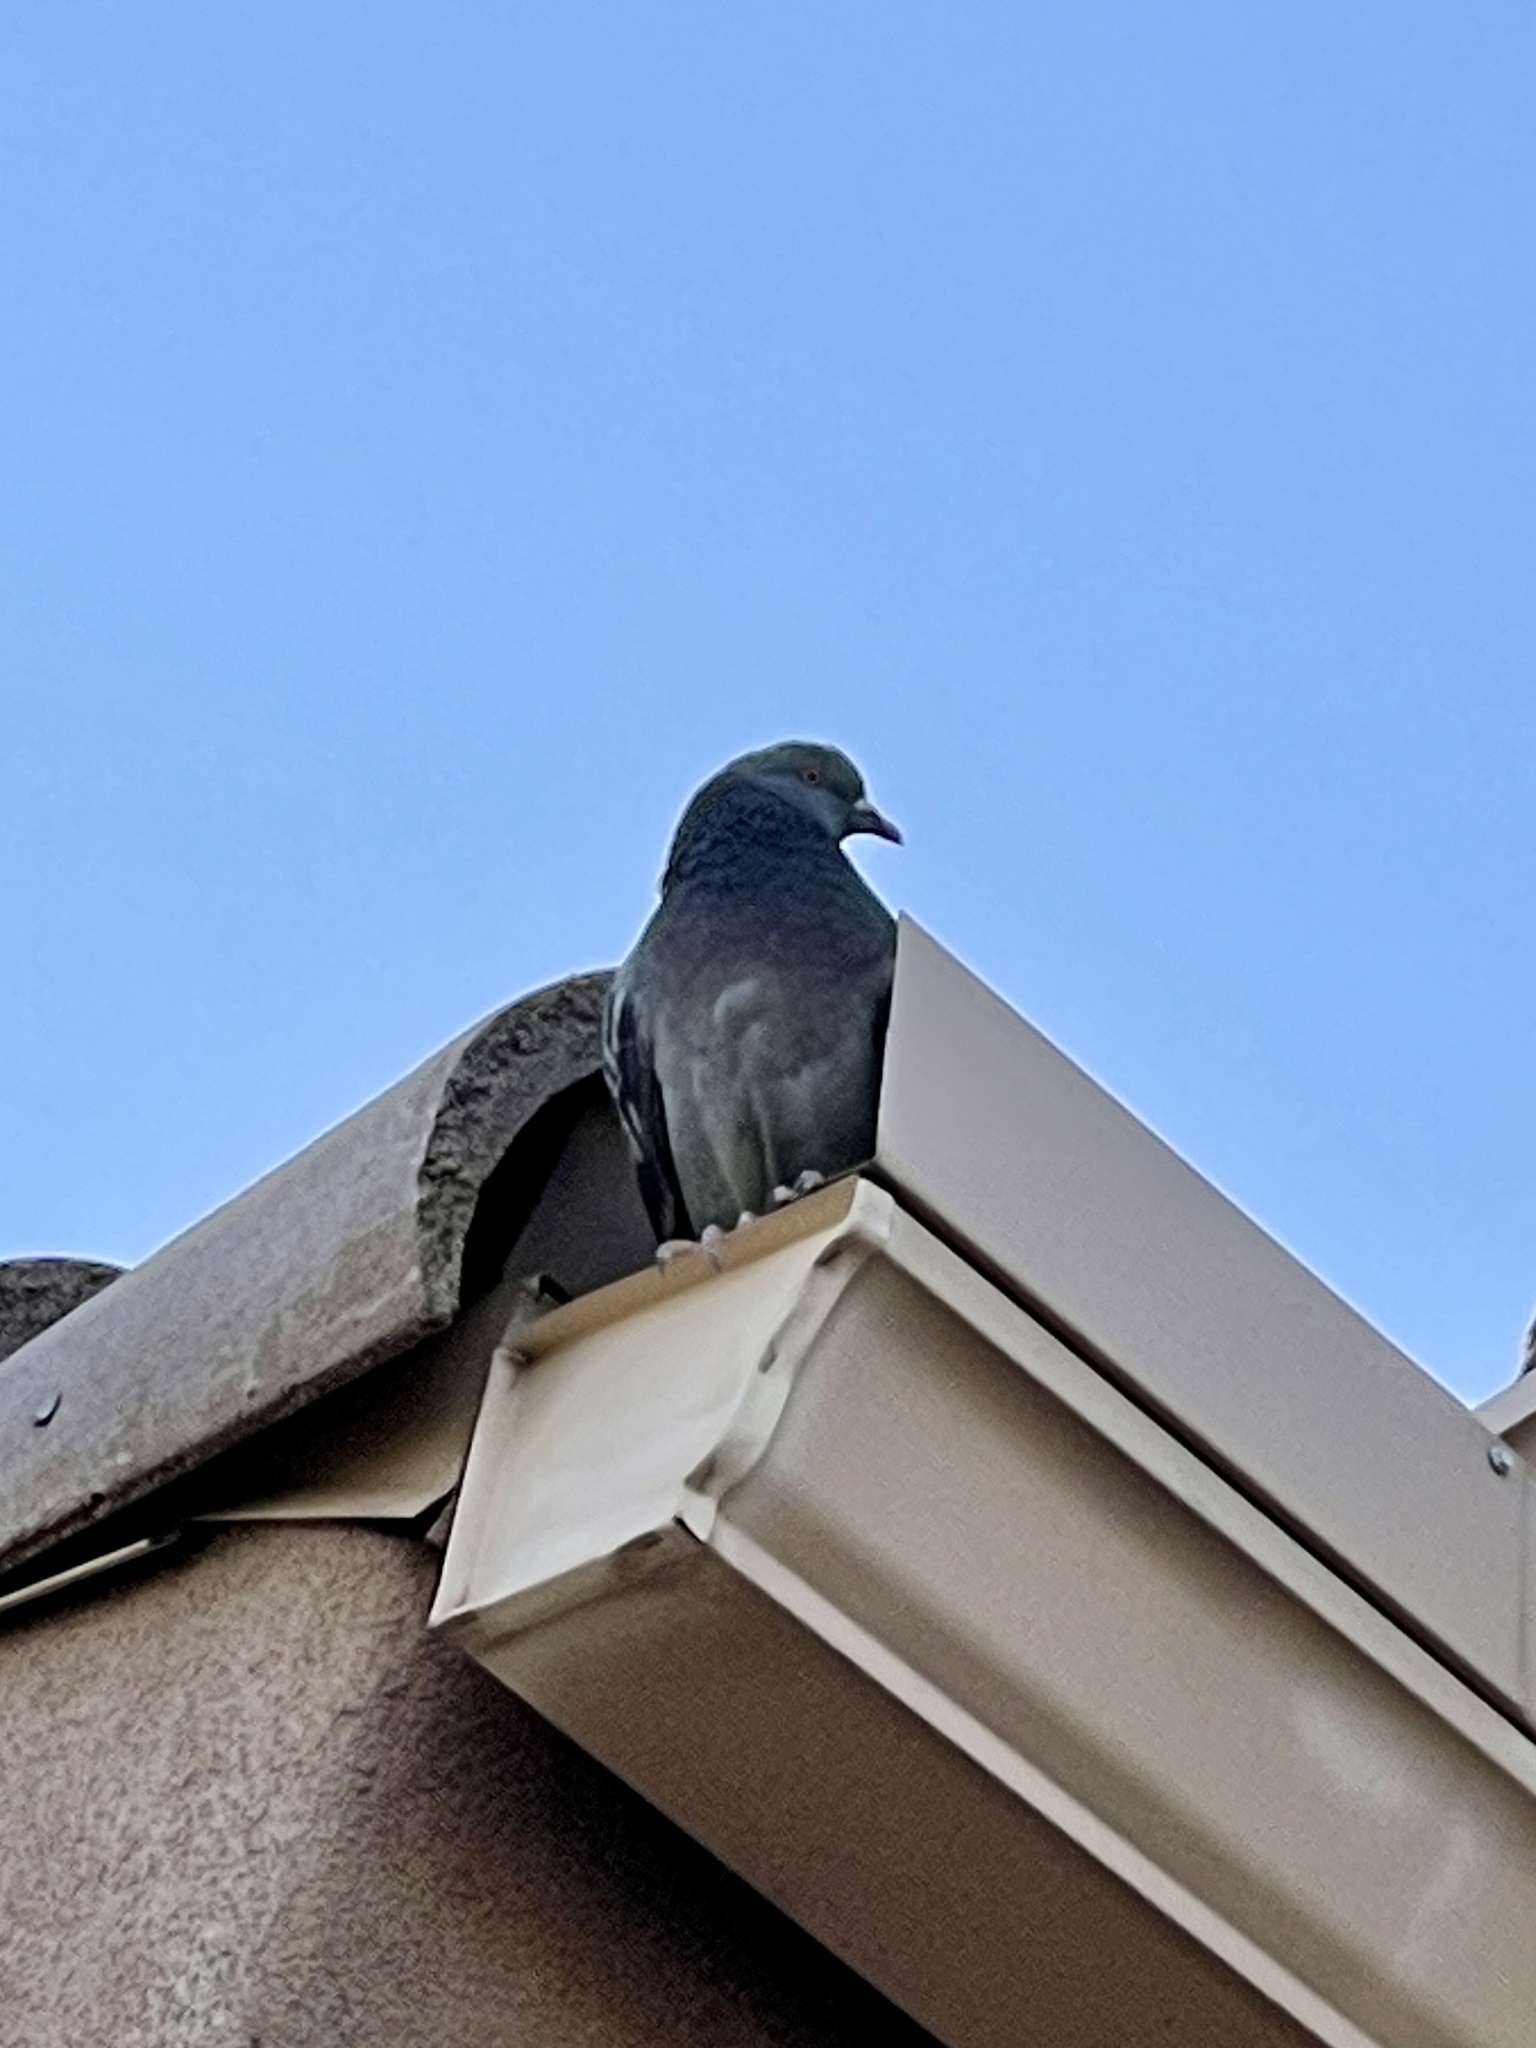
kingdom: Animalia
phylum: Chordata
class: Aves
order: Columbiformes
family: Columbidae
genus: Columba
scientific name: Columba livia
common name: Rock pigeon
